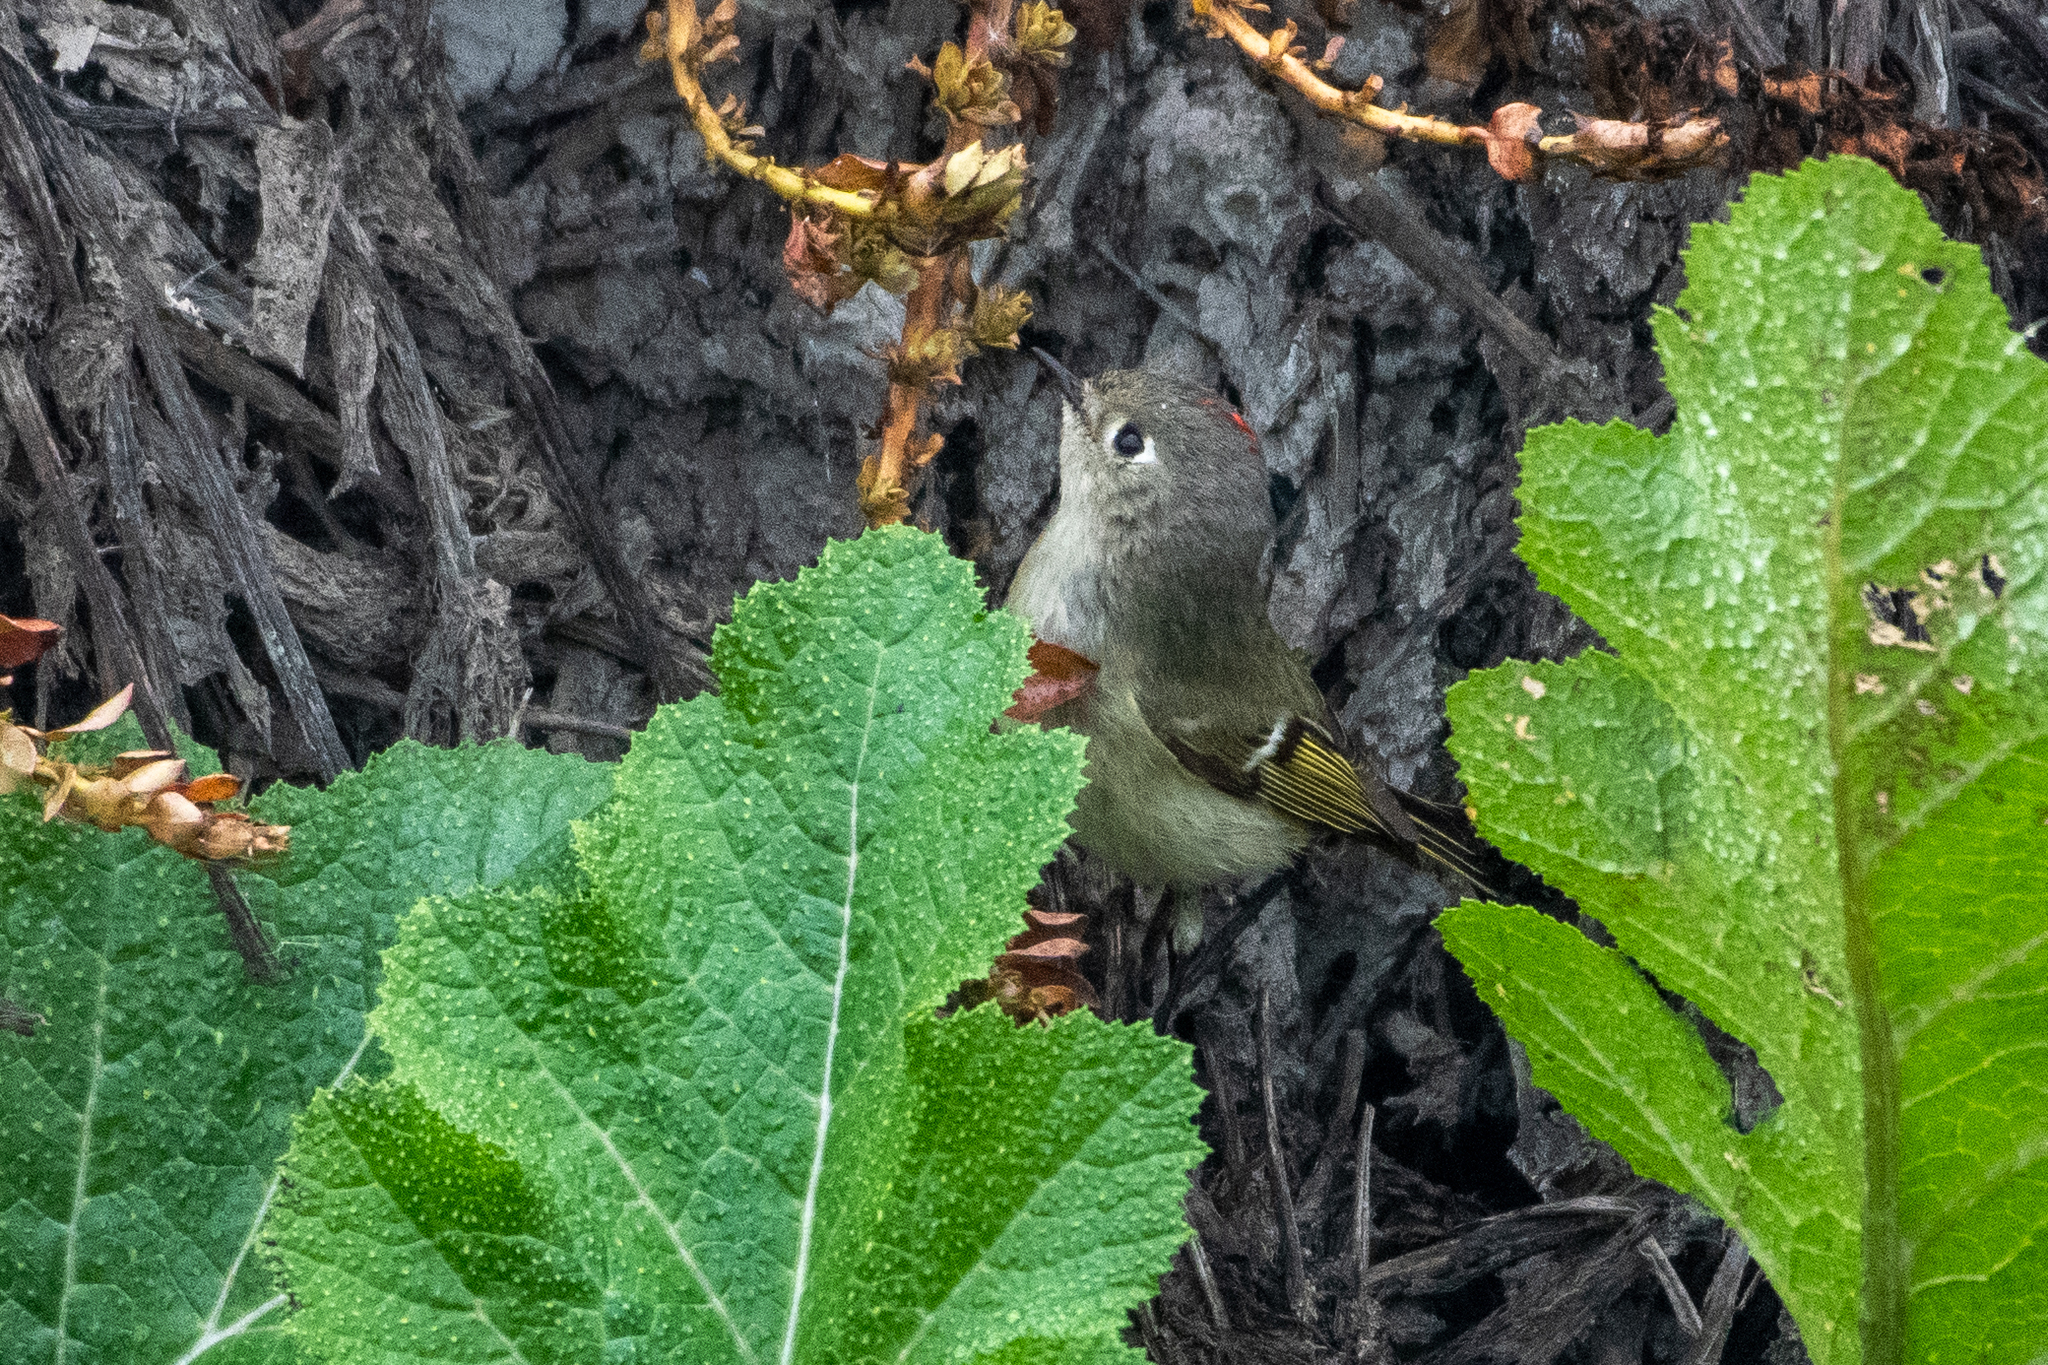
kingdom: Animalia
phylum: Chordata
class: Aves
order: Passeriformes
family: Regulidae
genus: Regulus
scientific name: Regulus calendula
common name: Ruby-crowned kinglet
